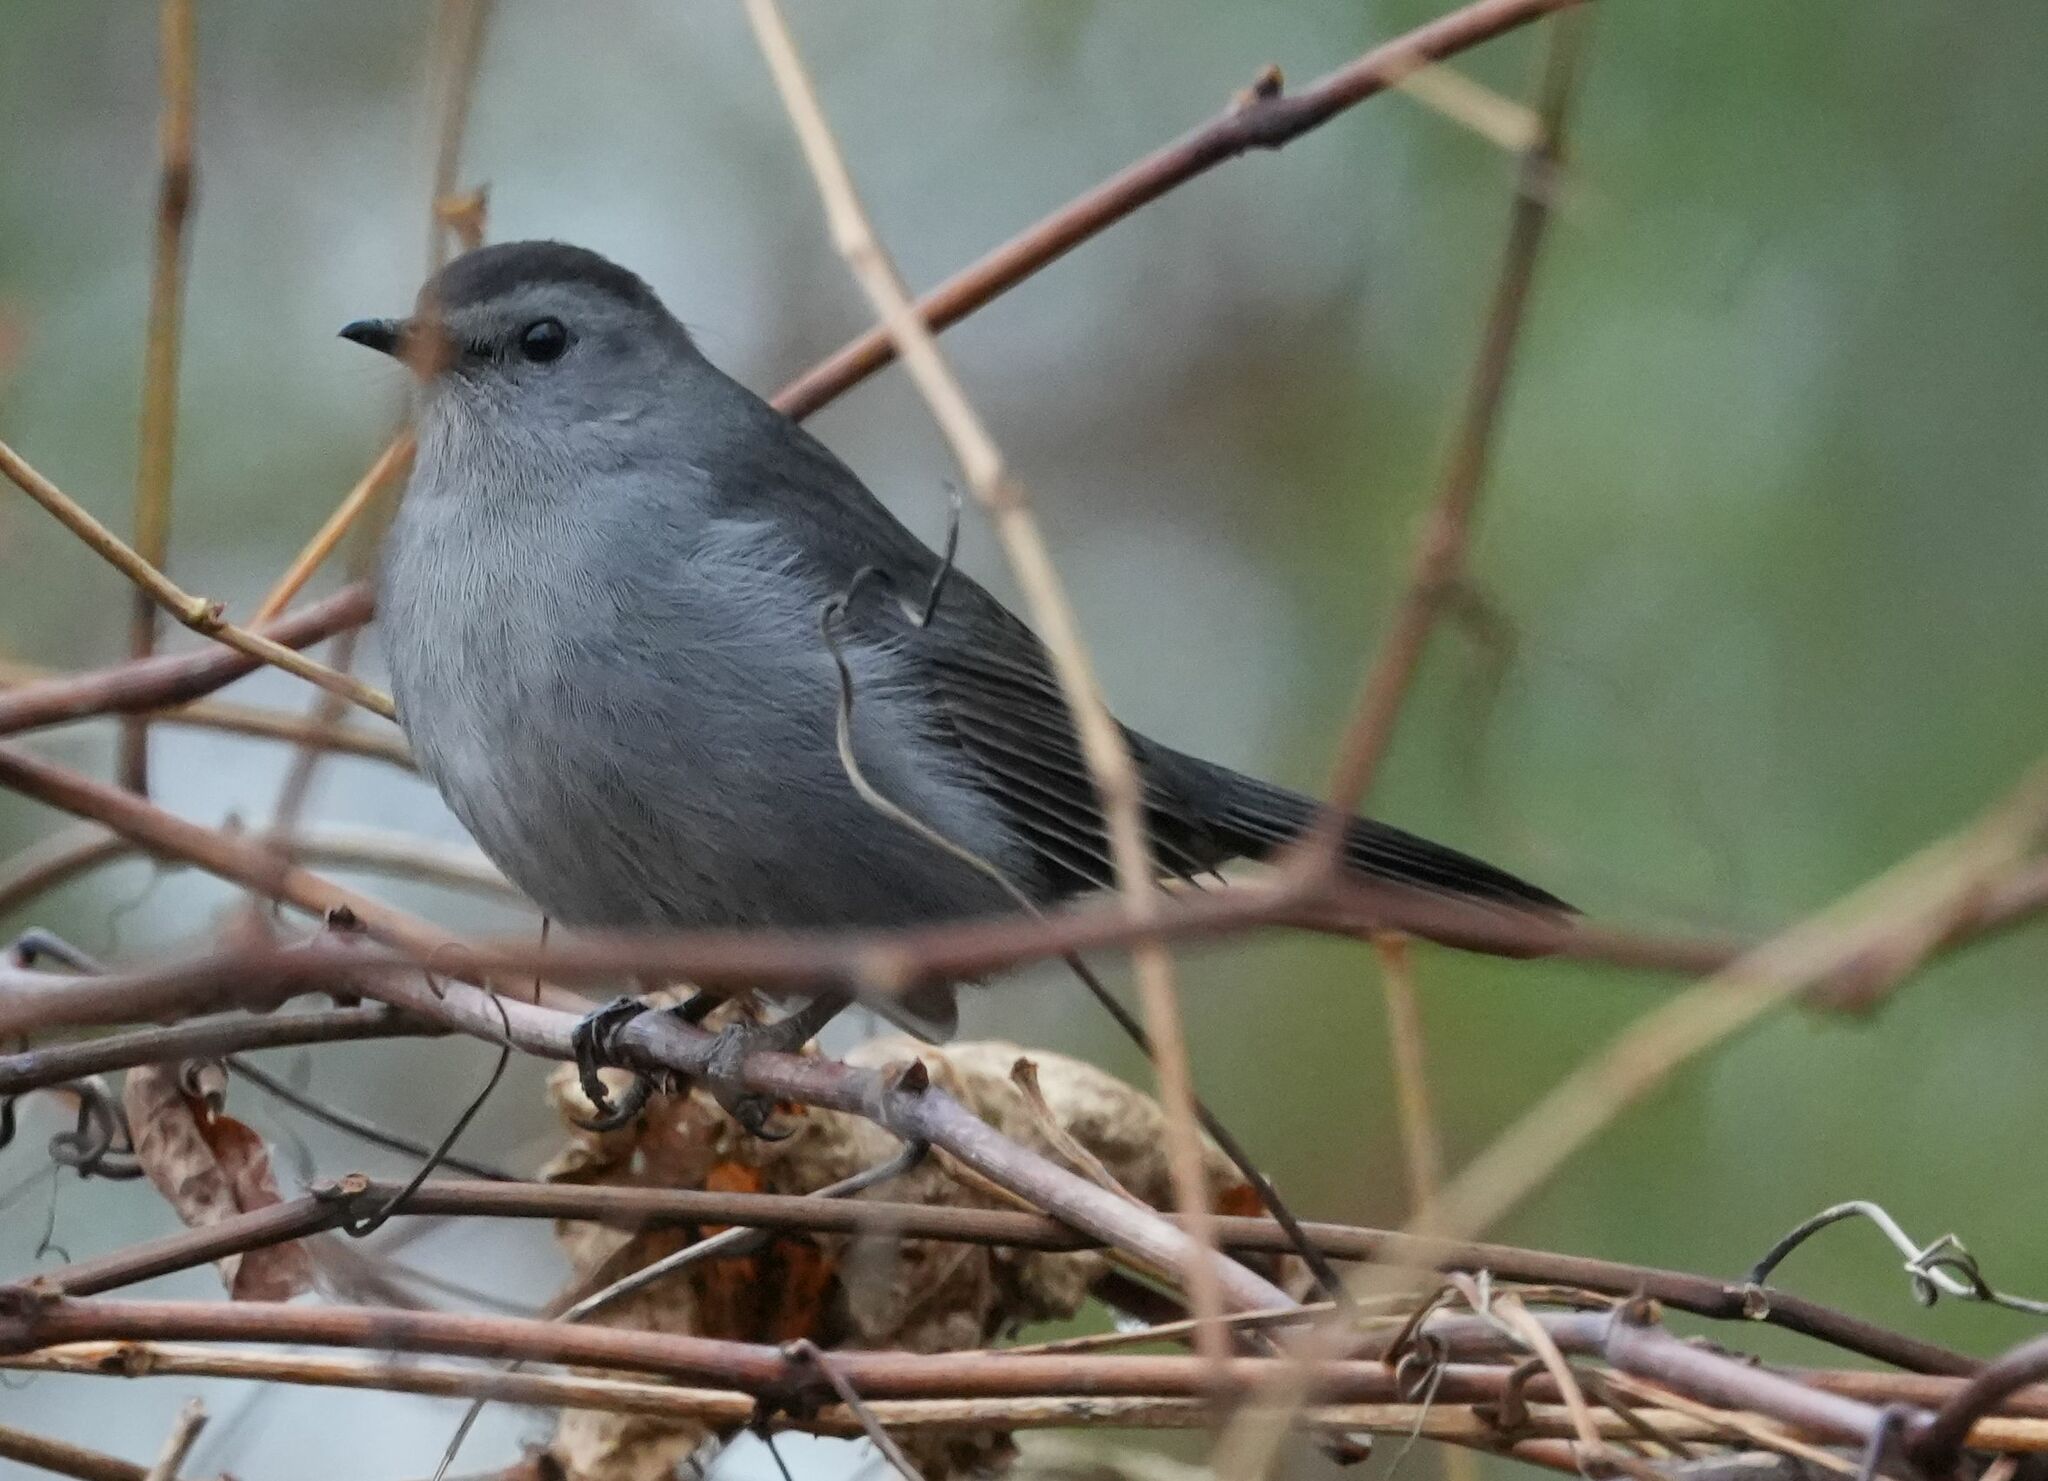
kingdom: Animalia
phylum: Chordata
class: Aves
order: Passeriformes
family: Mimidae
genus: Dumetella
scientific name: Dumetella carolinensis
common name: Gray catbird
